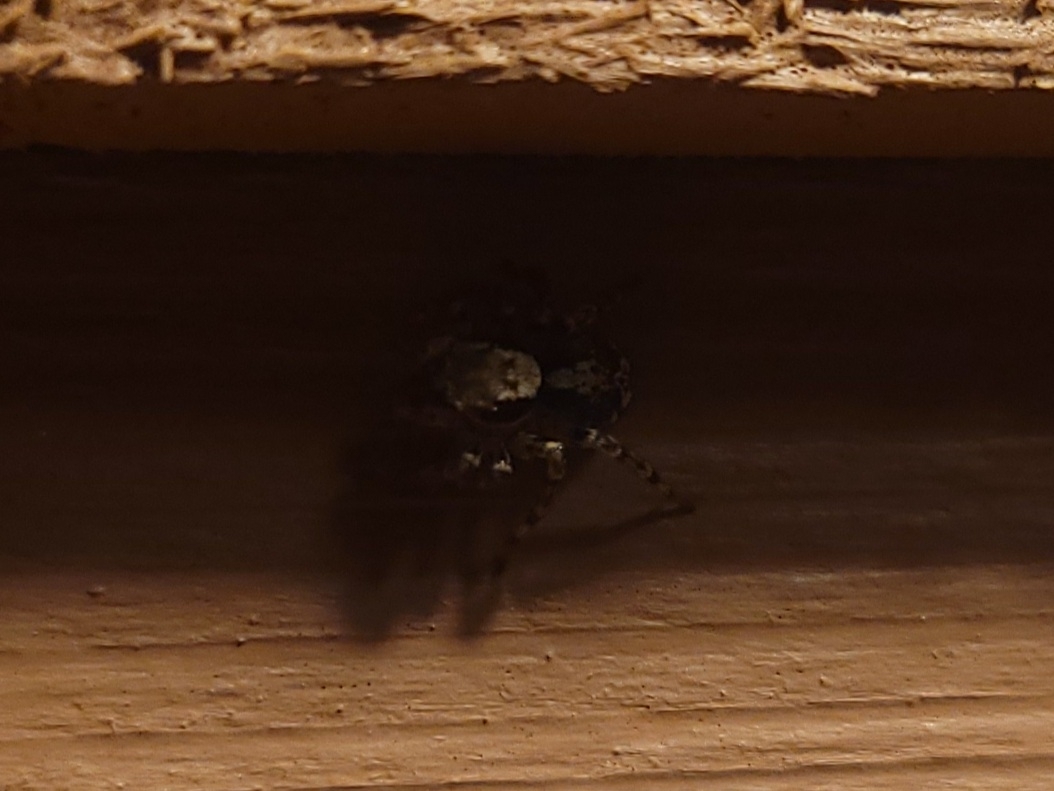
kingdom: Animalia
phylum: Arthropoda
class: Arachnida
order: Araneae
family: Salticidae
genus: Naphrys
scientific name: Naphrys pulex
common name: Flea jumping spider
